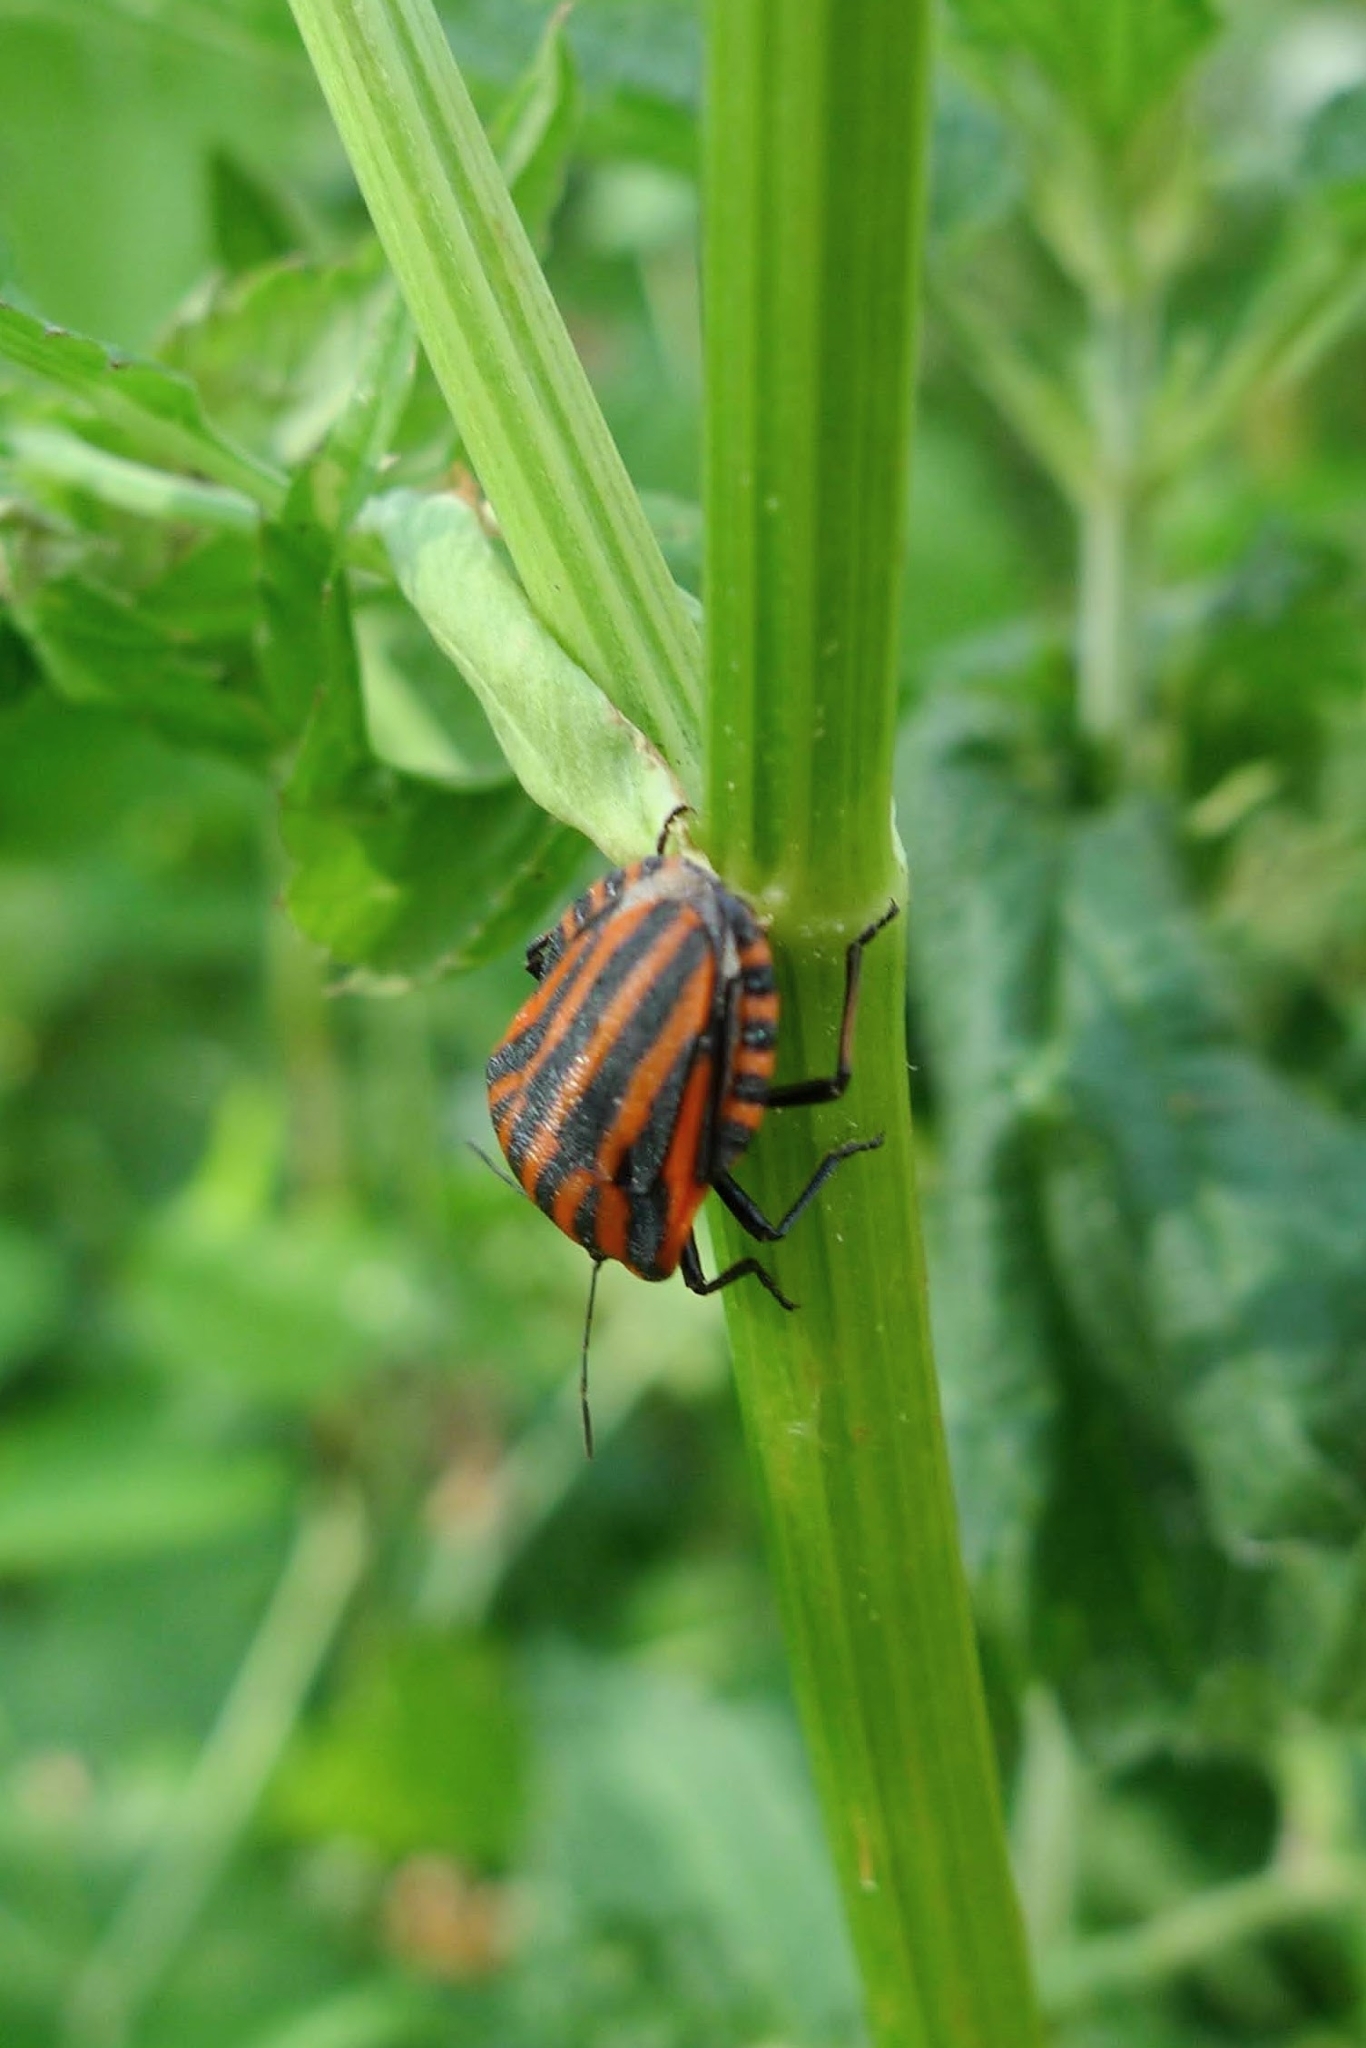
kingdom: Animalia
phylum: Arthropoda
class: Insecta
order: Hemiptera
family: Pentatomidae
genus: Graphosoma
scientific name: Graphosoma italicum
